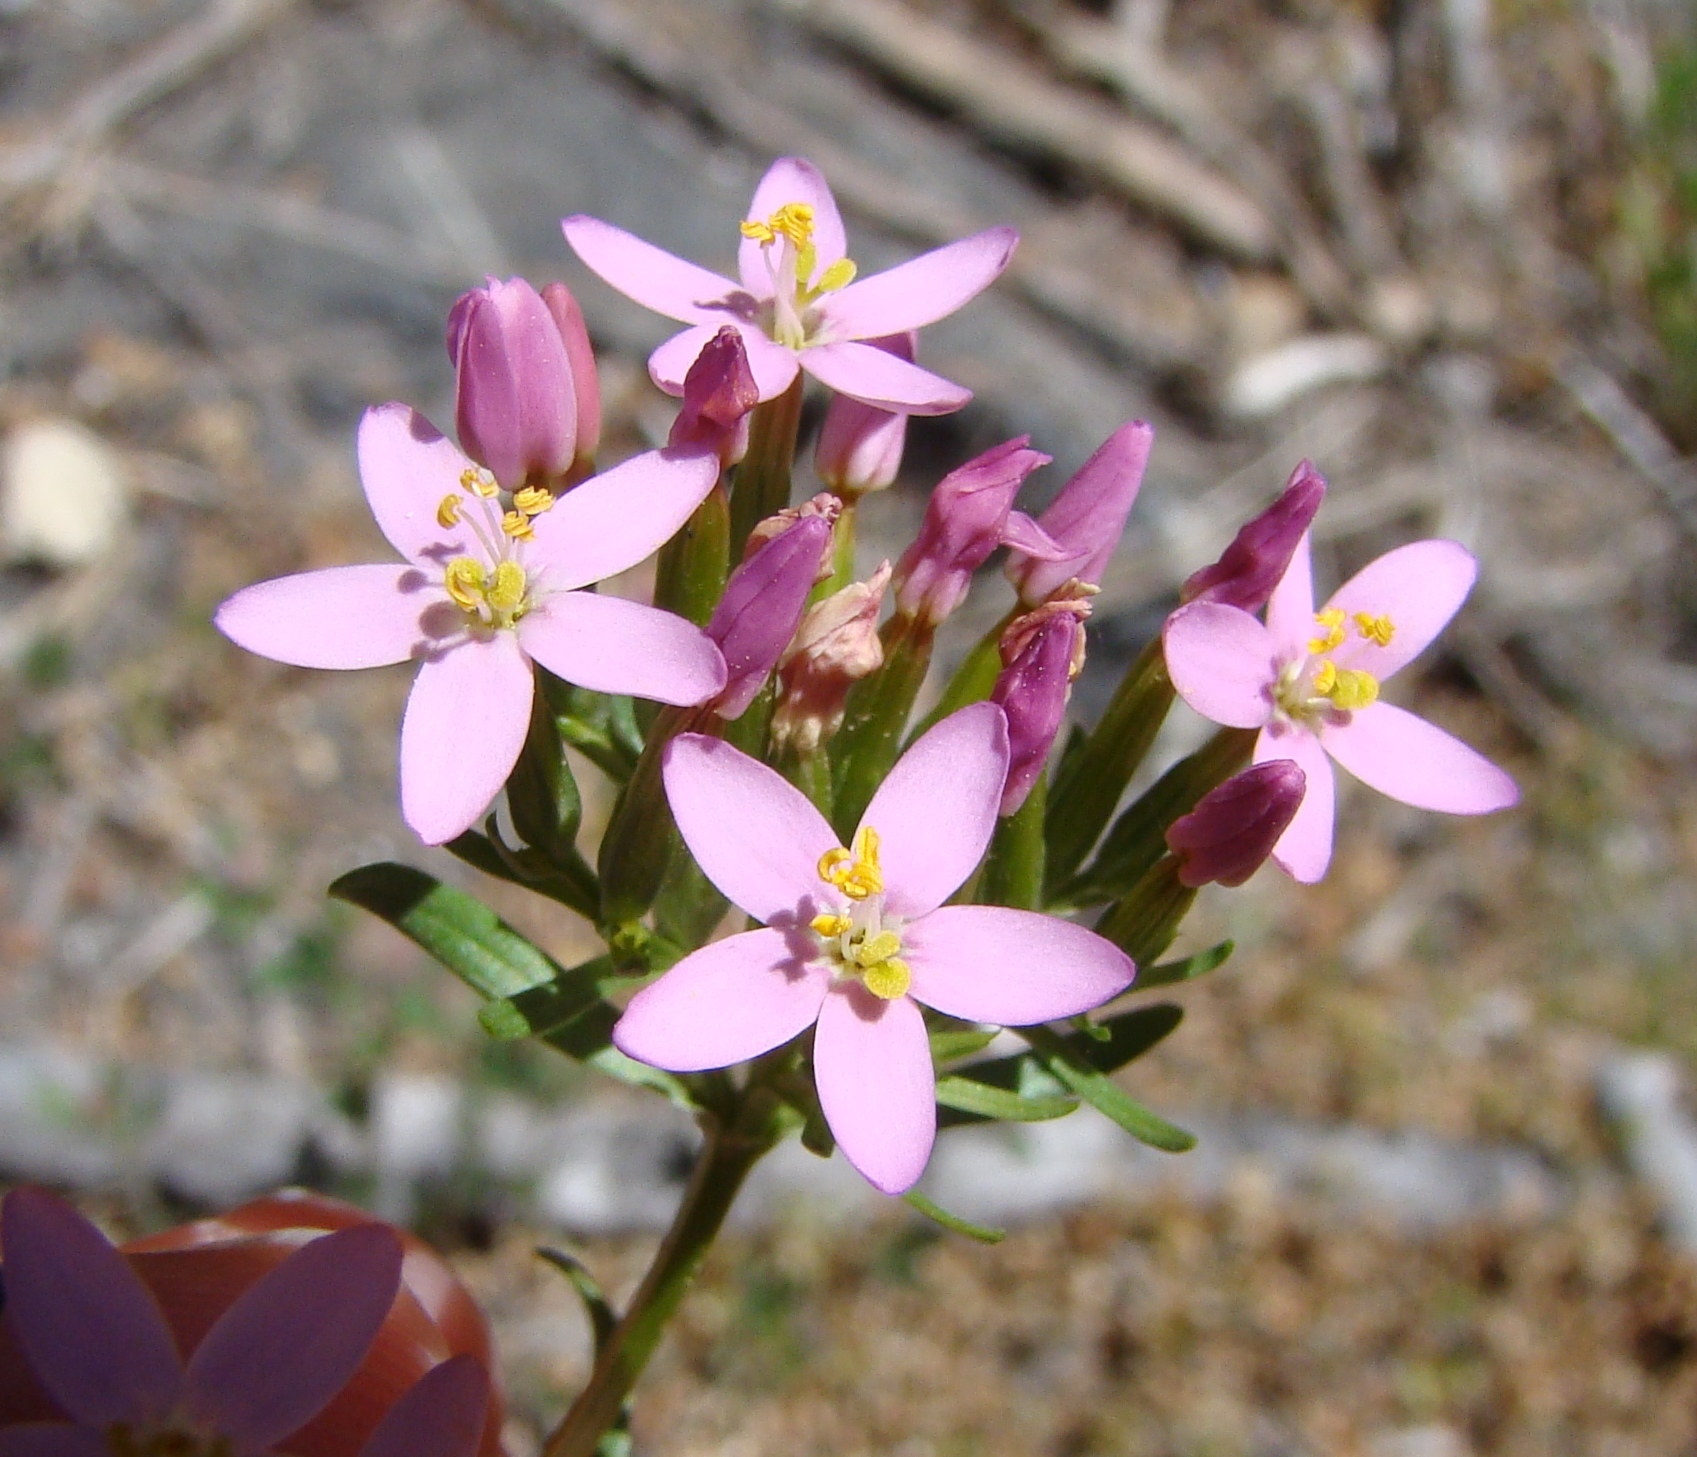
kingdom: Plantae
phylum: Tracheophyta
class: Magnoliopsida
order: Gentianales
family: Gentianaceae
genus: Centaurium
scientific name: Centaurium erythraea
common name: Common centaury
